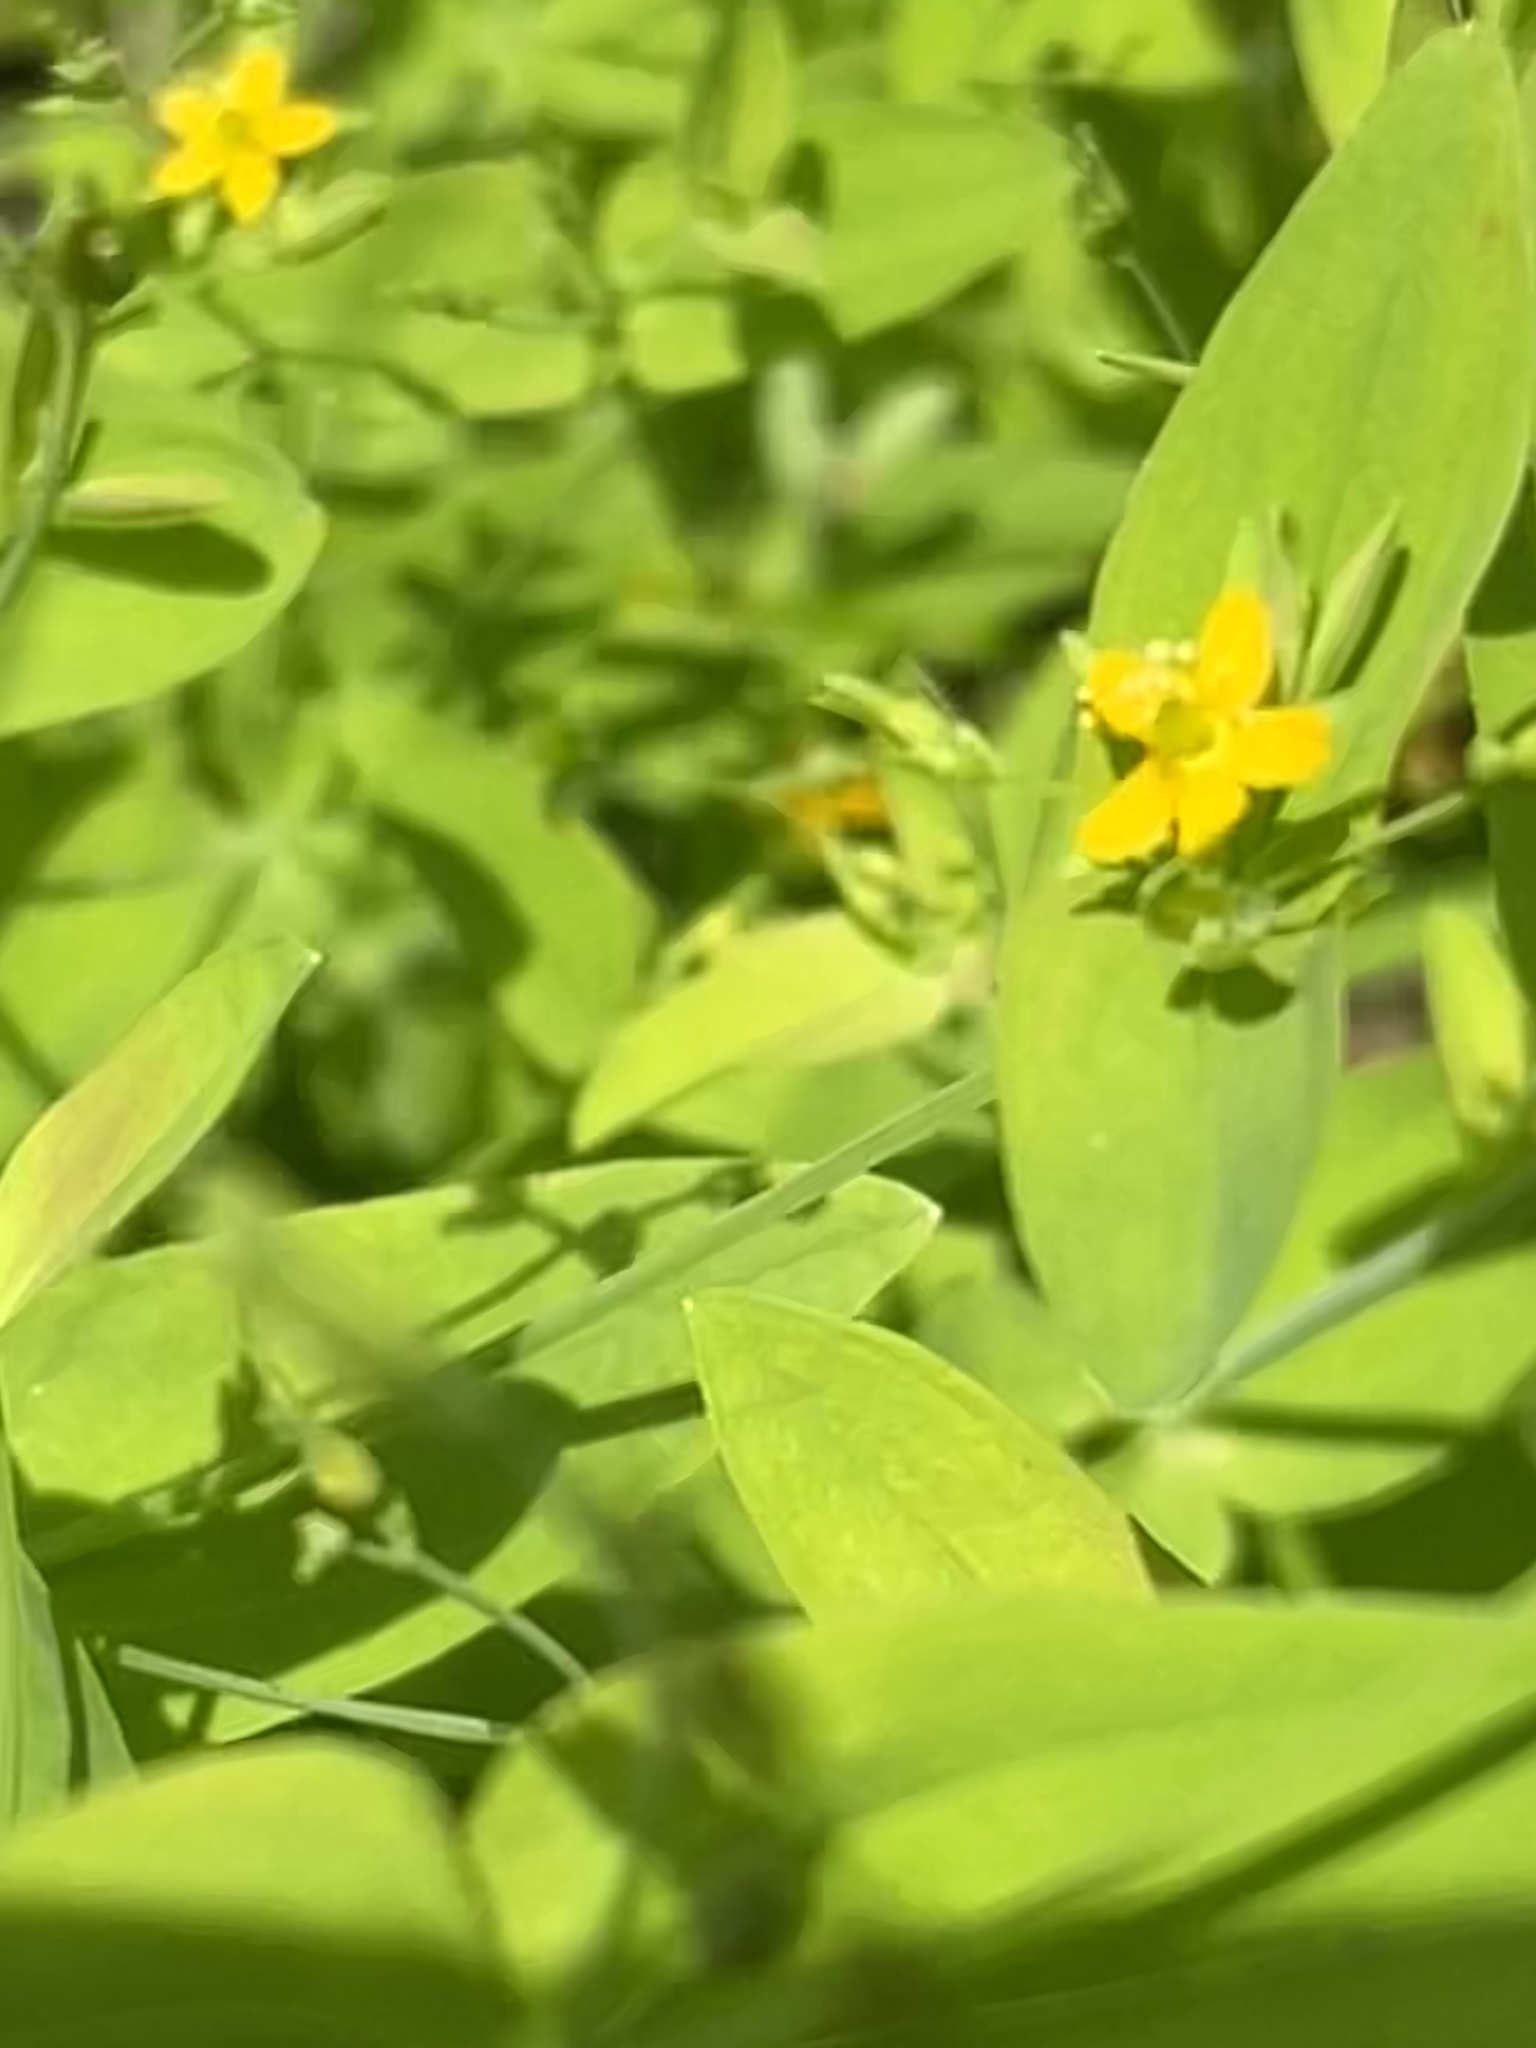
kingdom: Plantae
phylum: Tracheophyta
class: Magnoliopsida
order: Malpighiales
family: Hypericaceae
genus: Hypericum
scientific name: Hypericum mutilum
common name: Dwarf st. john's-wort
